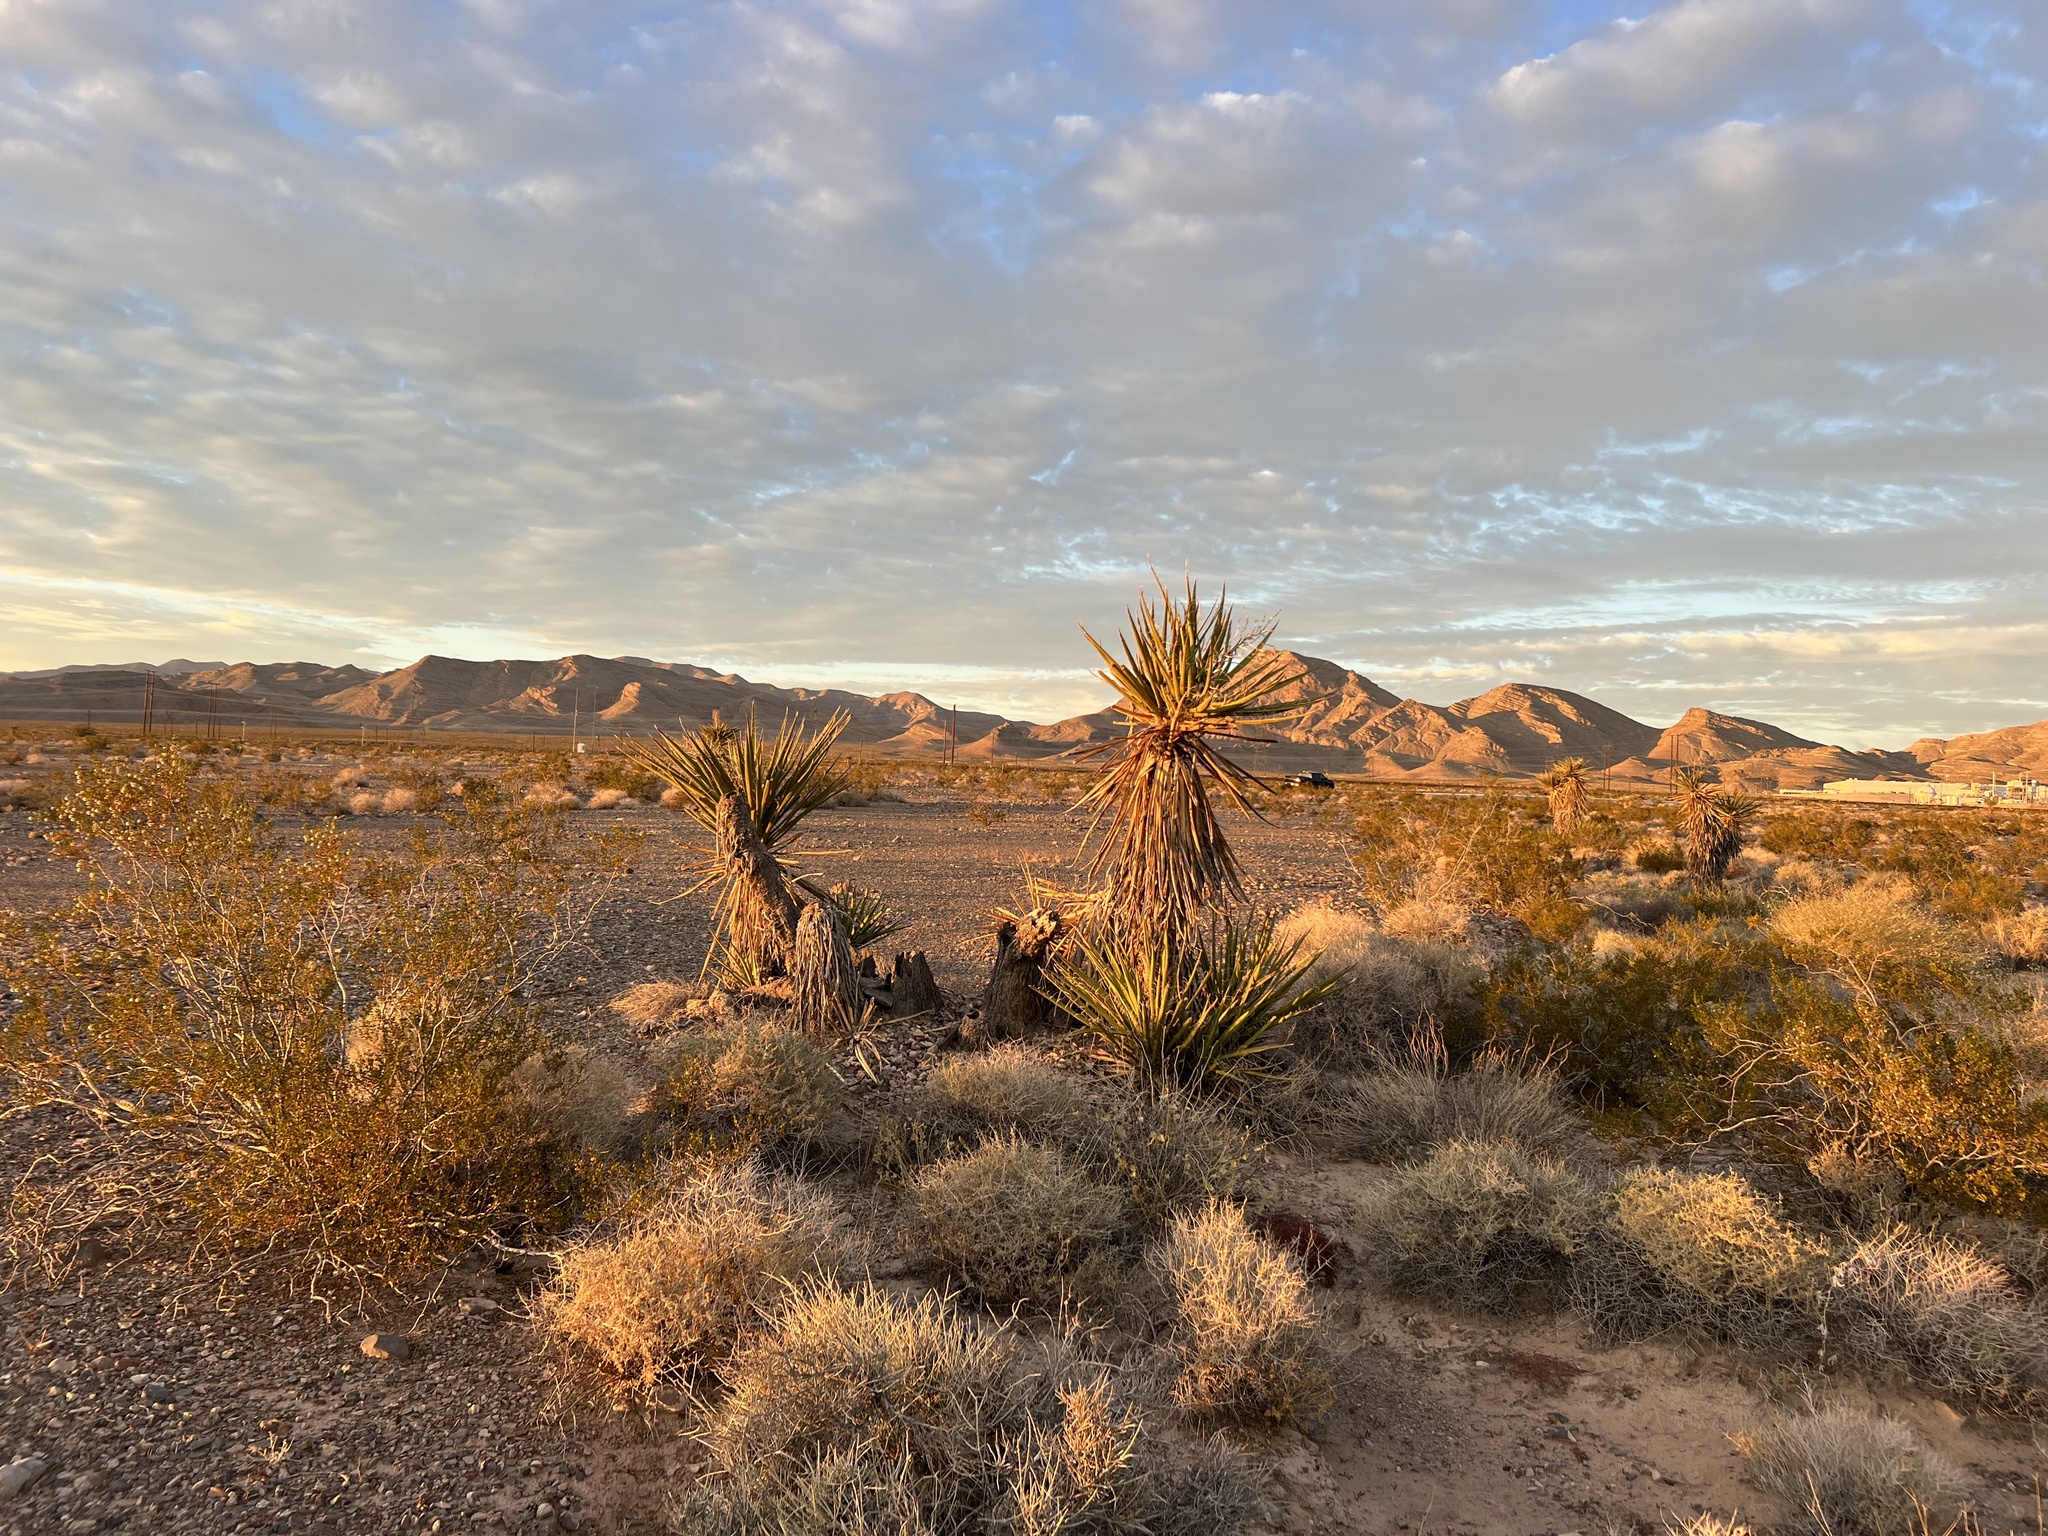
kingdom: Plantae
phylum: Tracheophyta
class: Liliopsida
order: Asparagales
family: Asparagaceae
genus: Yucca
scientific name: Yucca schidigera
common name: Mojave yucca
